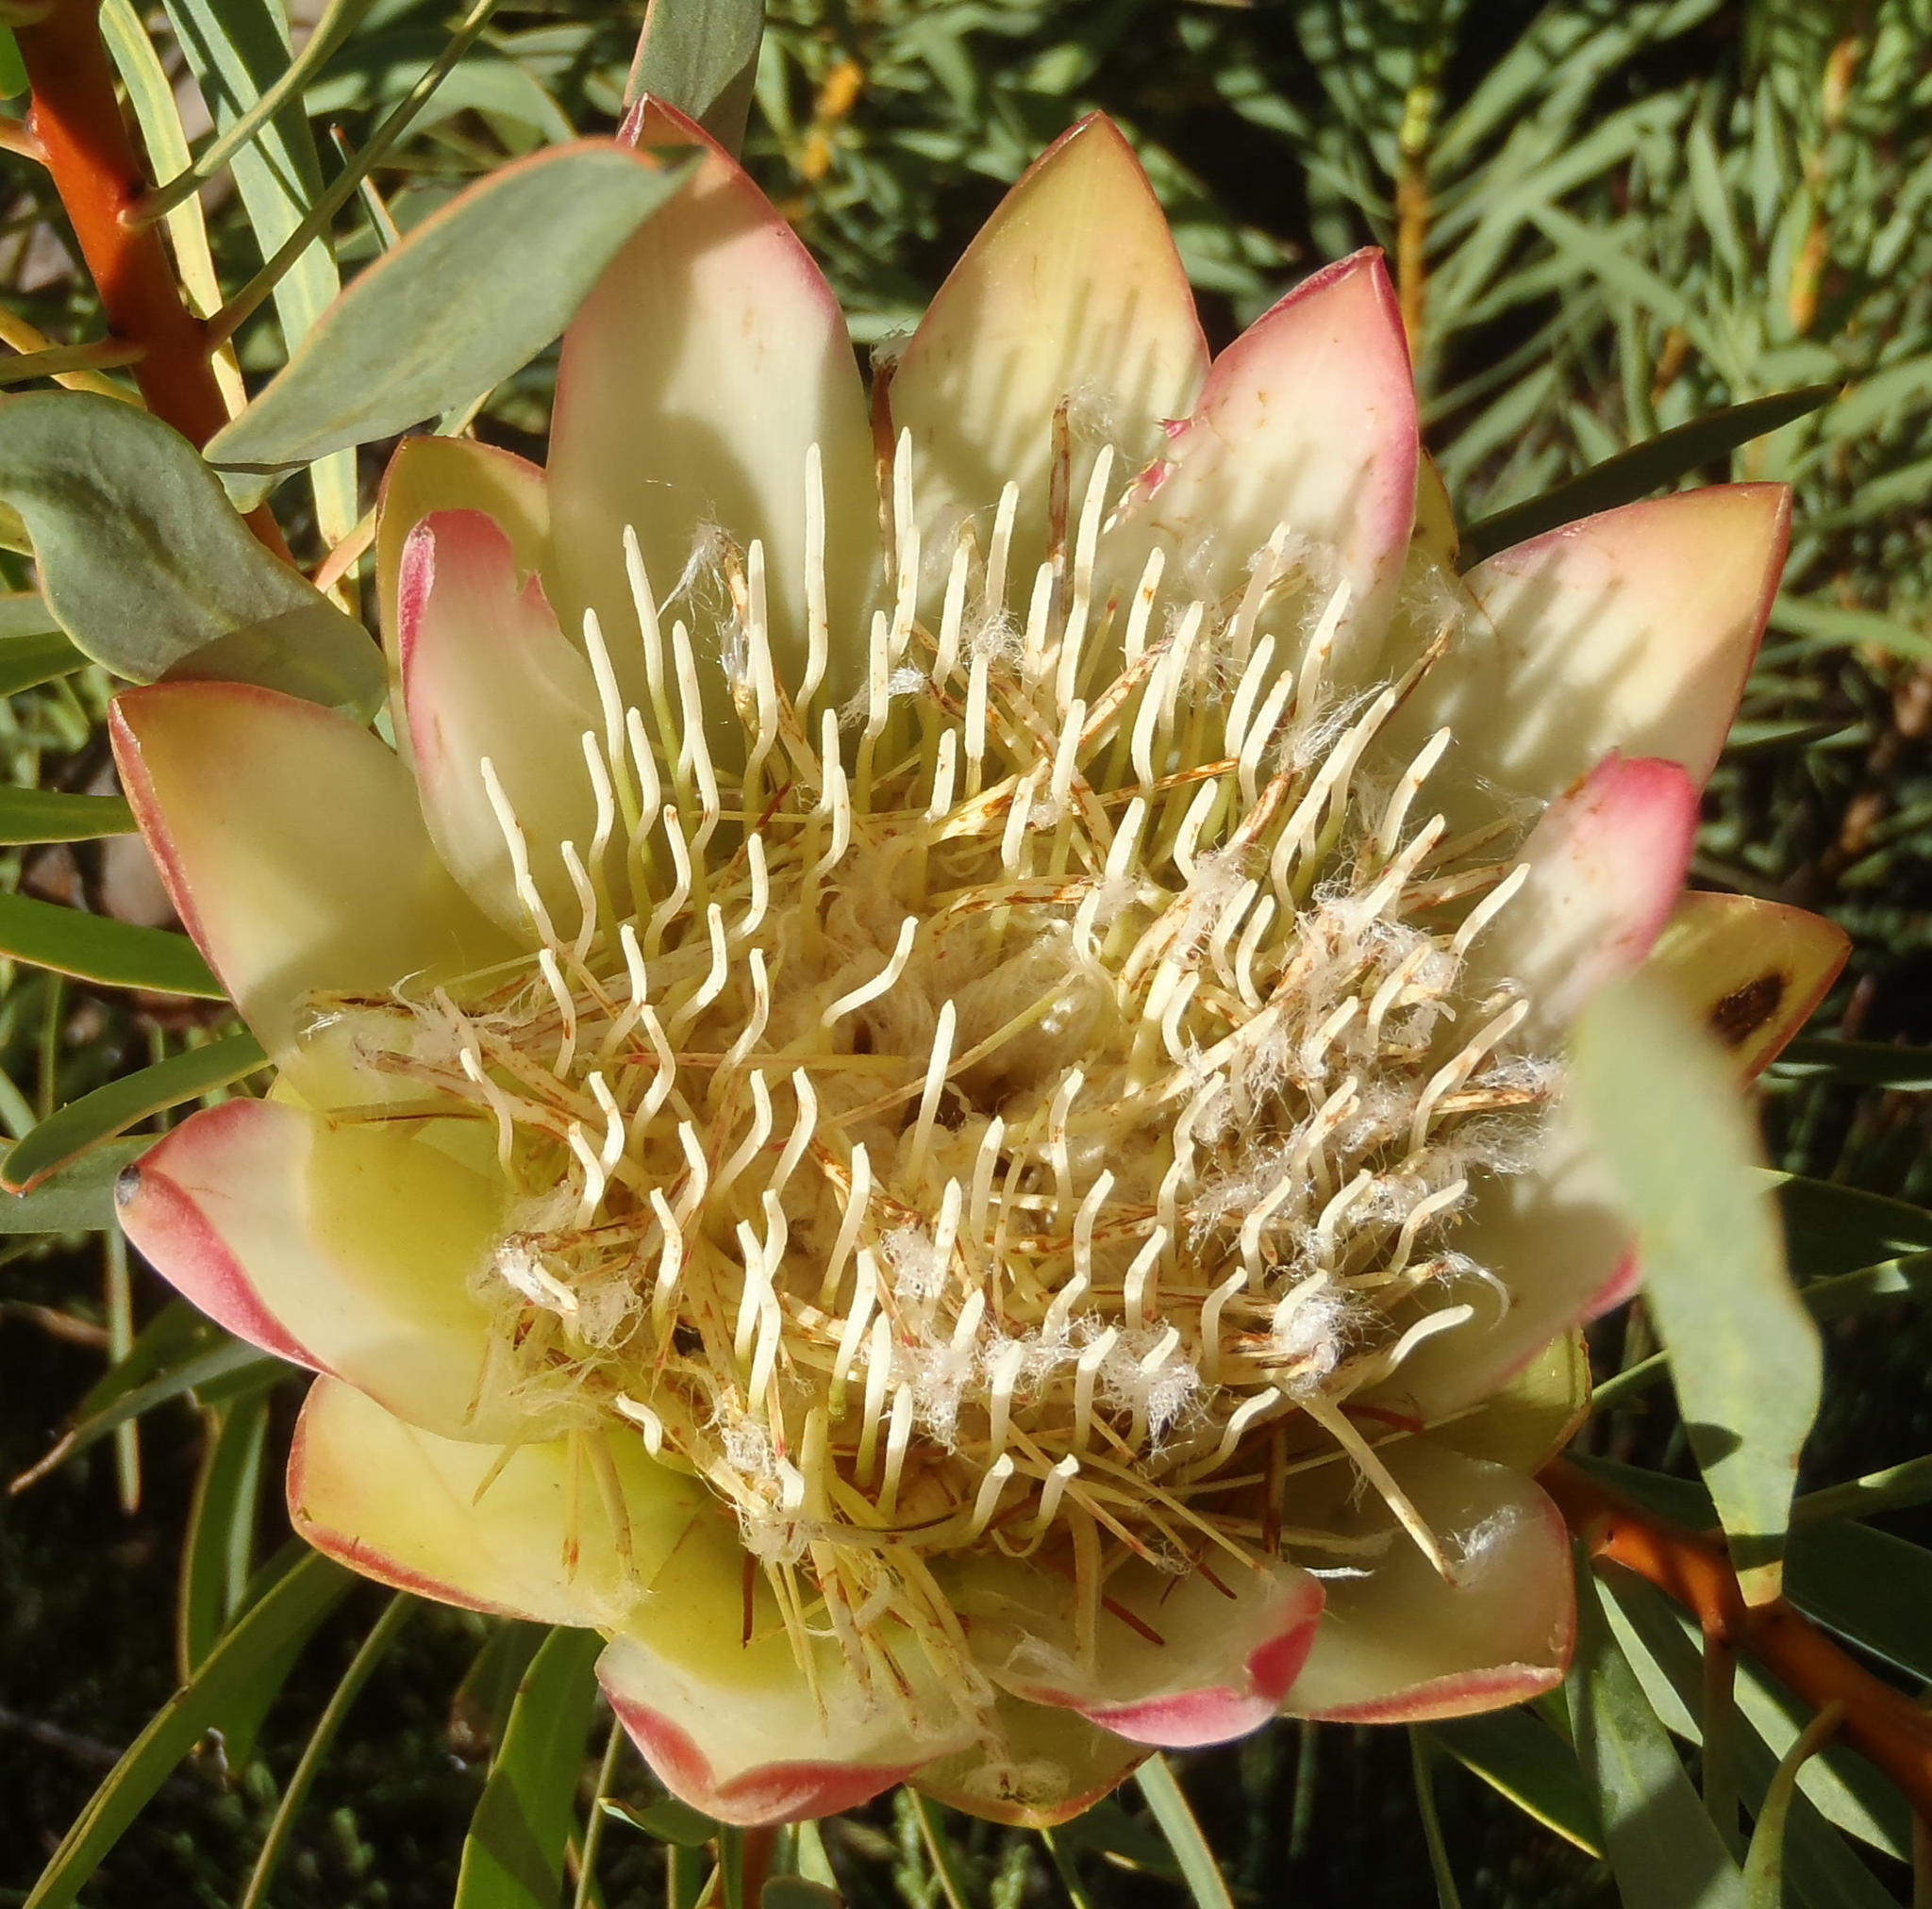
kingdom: Plantae
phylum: Tracheophyta
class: Magnoliopsida
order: Proteales
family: Proteaceae
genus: Protea
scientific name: Protea repens
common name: Sugarbush
